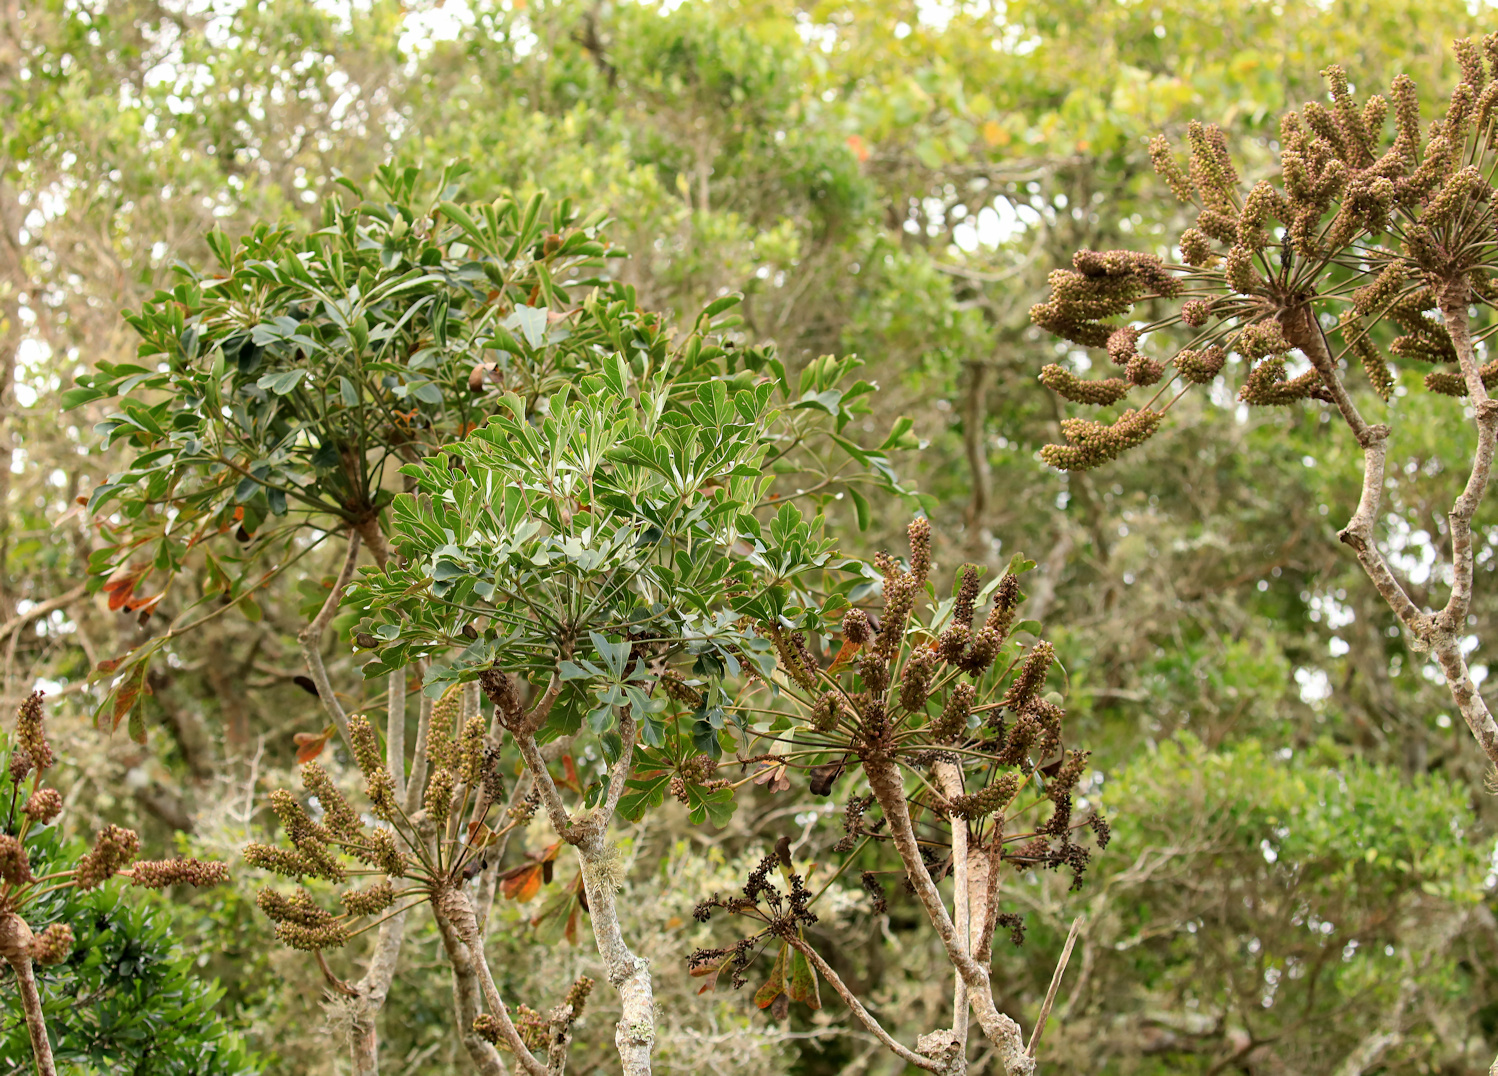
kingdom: Plantae
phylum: Tracheophyta
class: Magnoliopsida
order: Apiales
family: Araliaceae
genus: Cussonia
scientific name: Cussonia spicata
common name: Common cabbagetree
